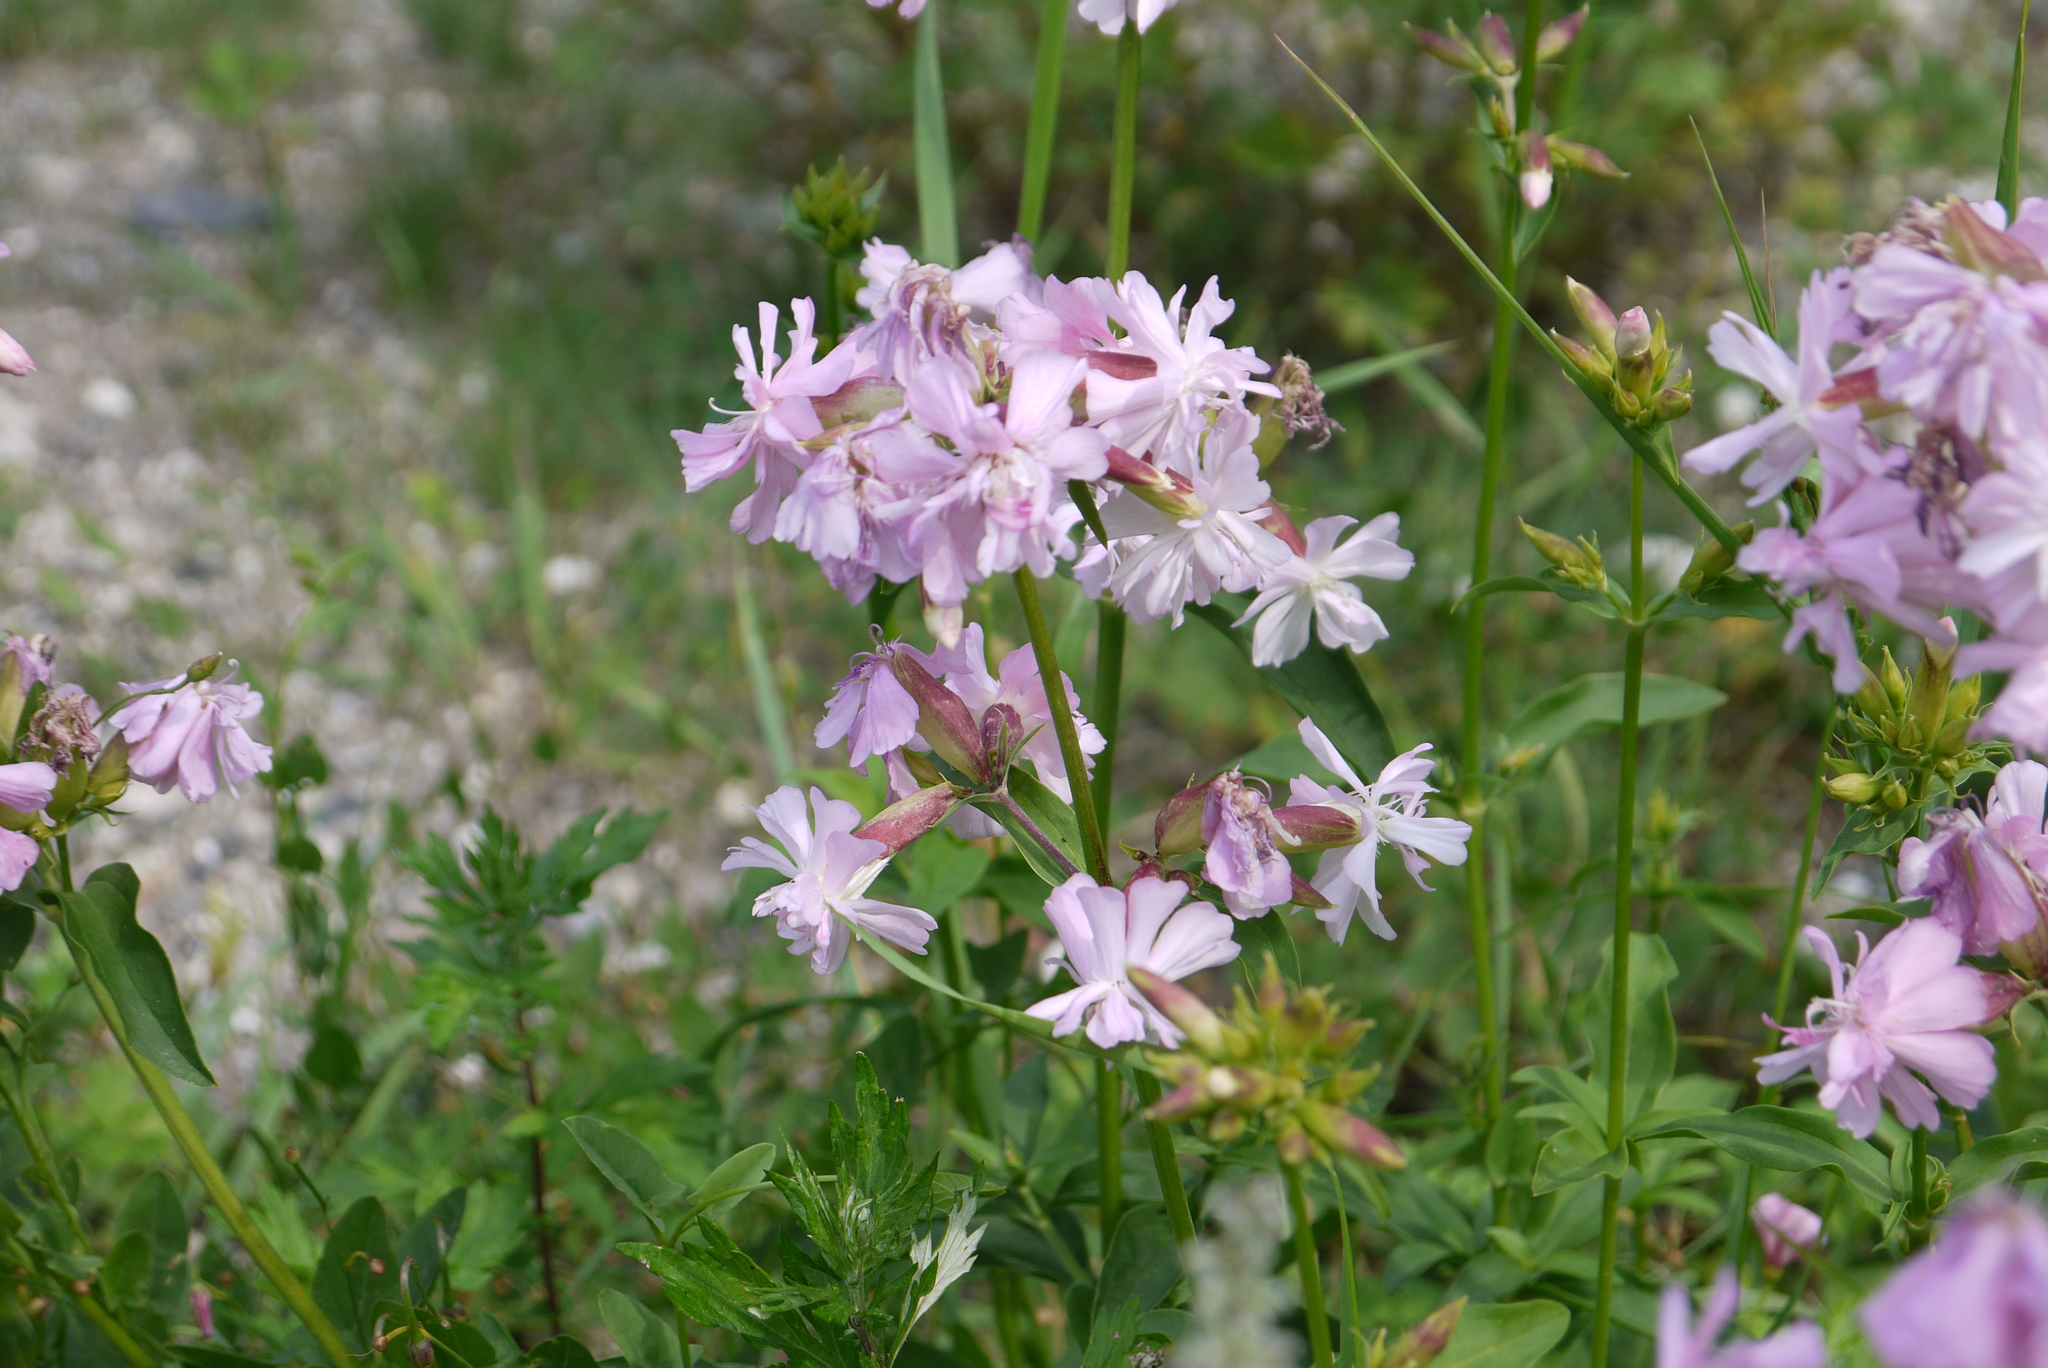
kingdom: Plantae
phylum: Tracheophyta
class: Magnoliopsida
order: Caryophyllales
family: Caryophyllaceae
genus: Saponaria
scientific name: Saponaria officinalis
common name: Soapwort
